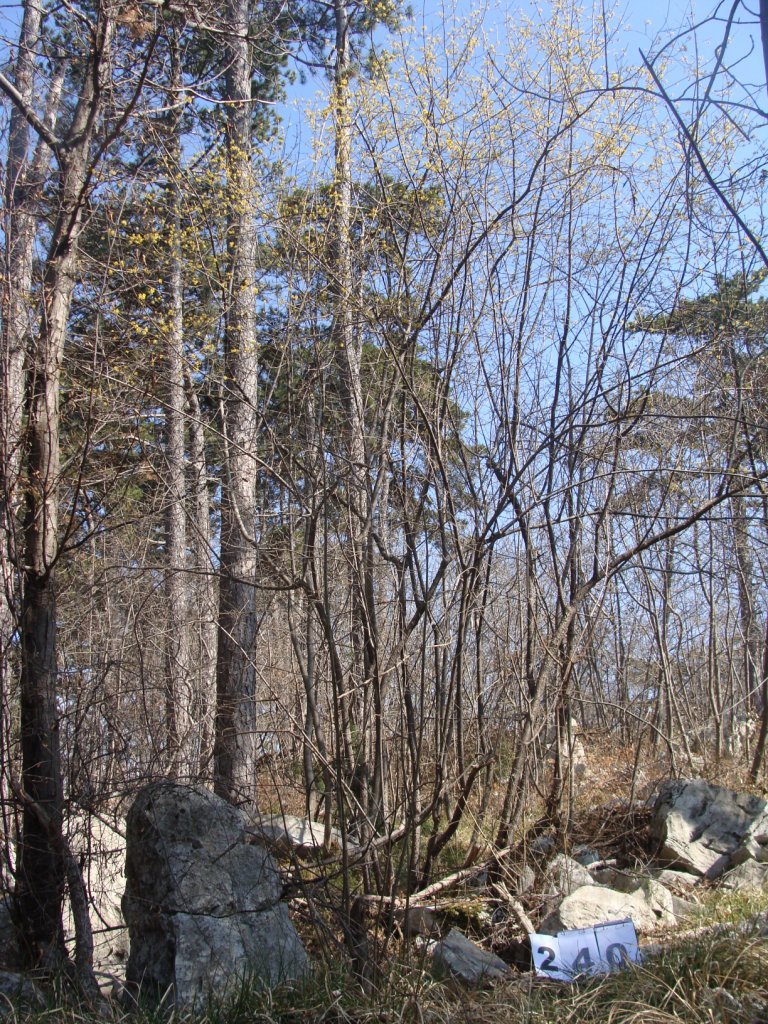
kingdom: Plantae
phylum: Tracheophyta
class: Magnoliopsida
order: Cornales
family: Cornaceae
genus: Cornus
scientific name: Cornus mas
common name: Cornelian-cherry
